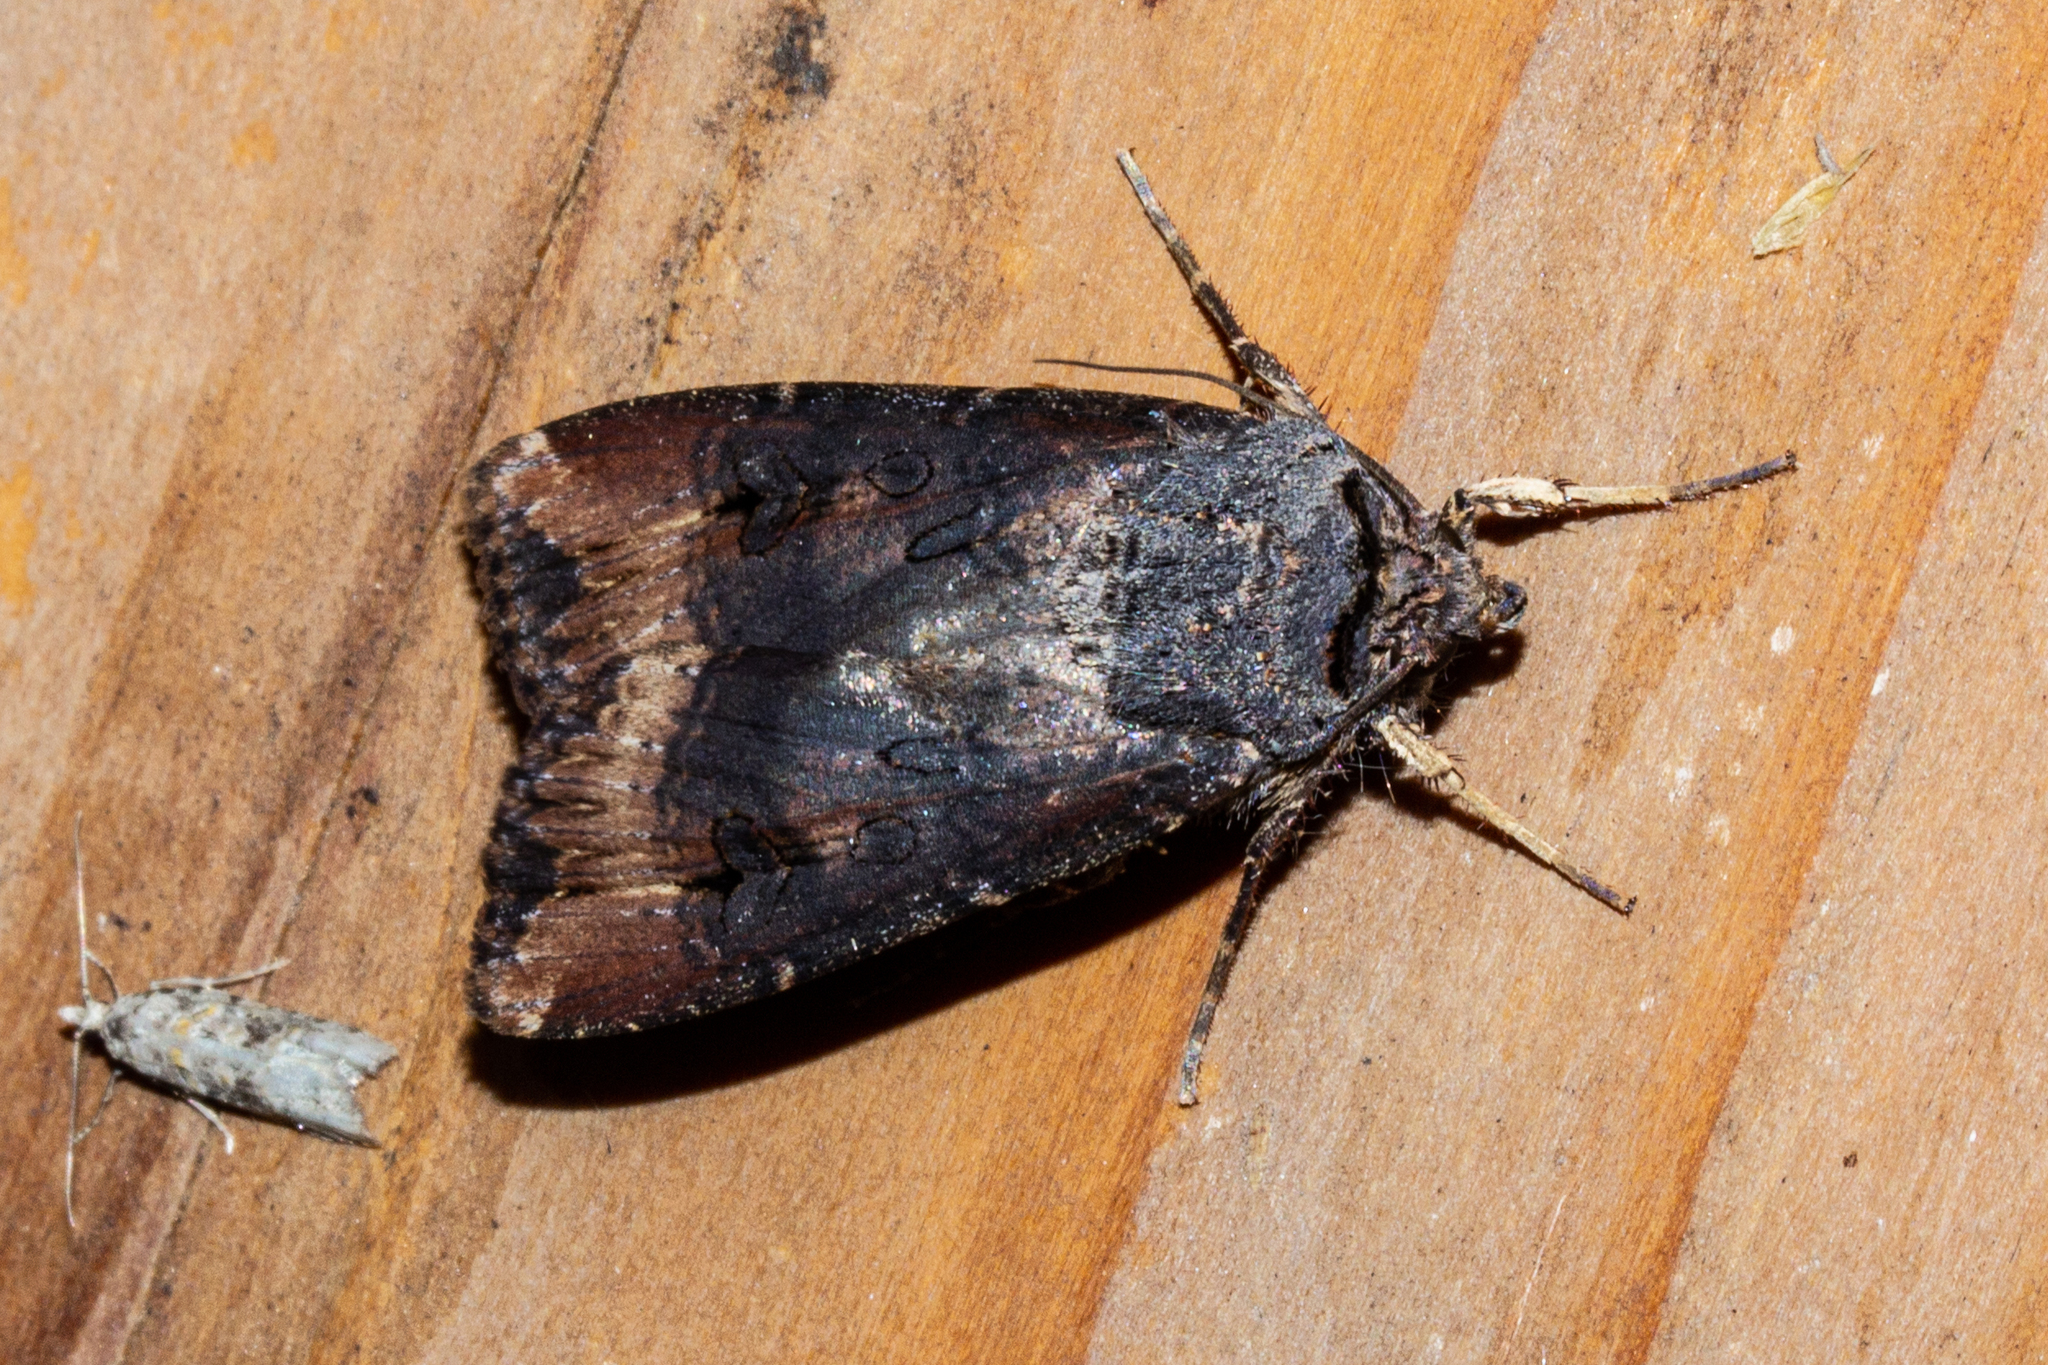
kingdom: Animalia
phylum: Arthropoda
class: Insecta
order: Lepidoptera
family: Noctuidae
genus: Agrotis
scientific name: Agrotis ipsilon
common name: Dark sword-grass
